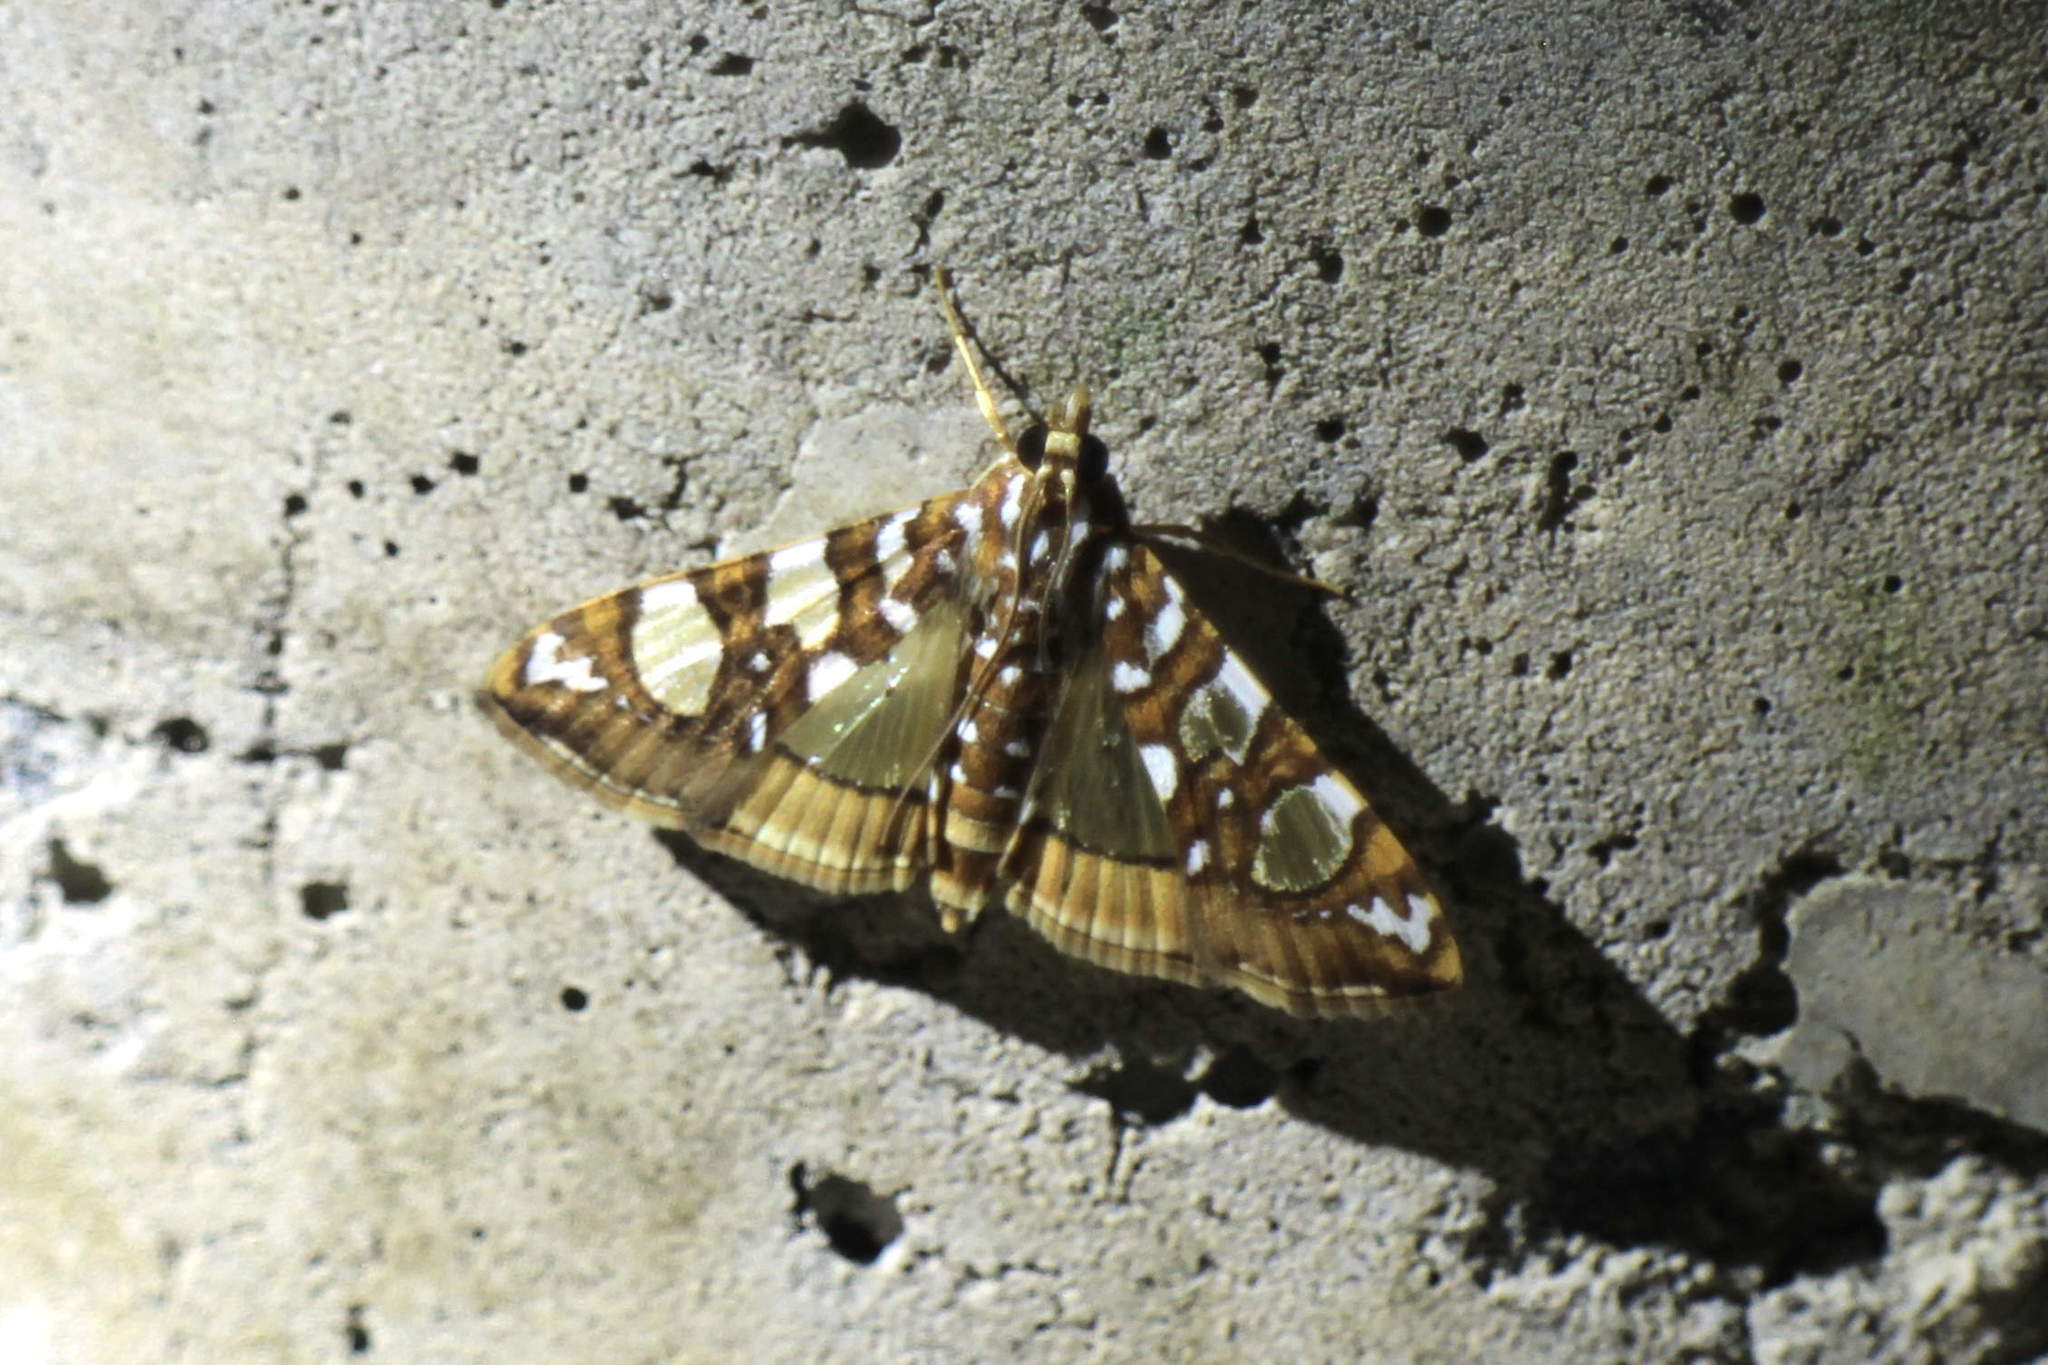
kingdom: Animalia
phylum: Arthropoda
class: Insecta
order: Lepidoptera
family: Crambidae
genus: Glyphodes
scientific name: Glyphodes sibillalis
